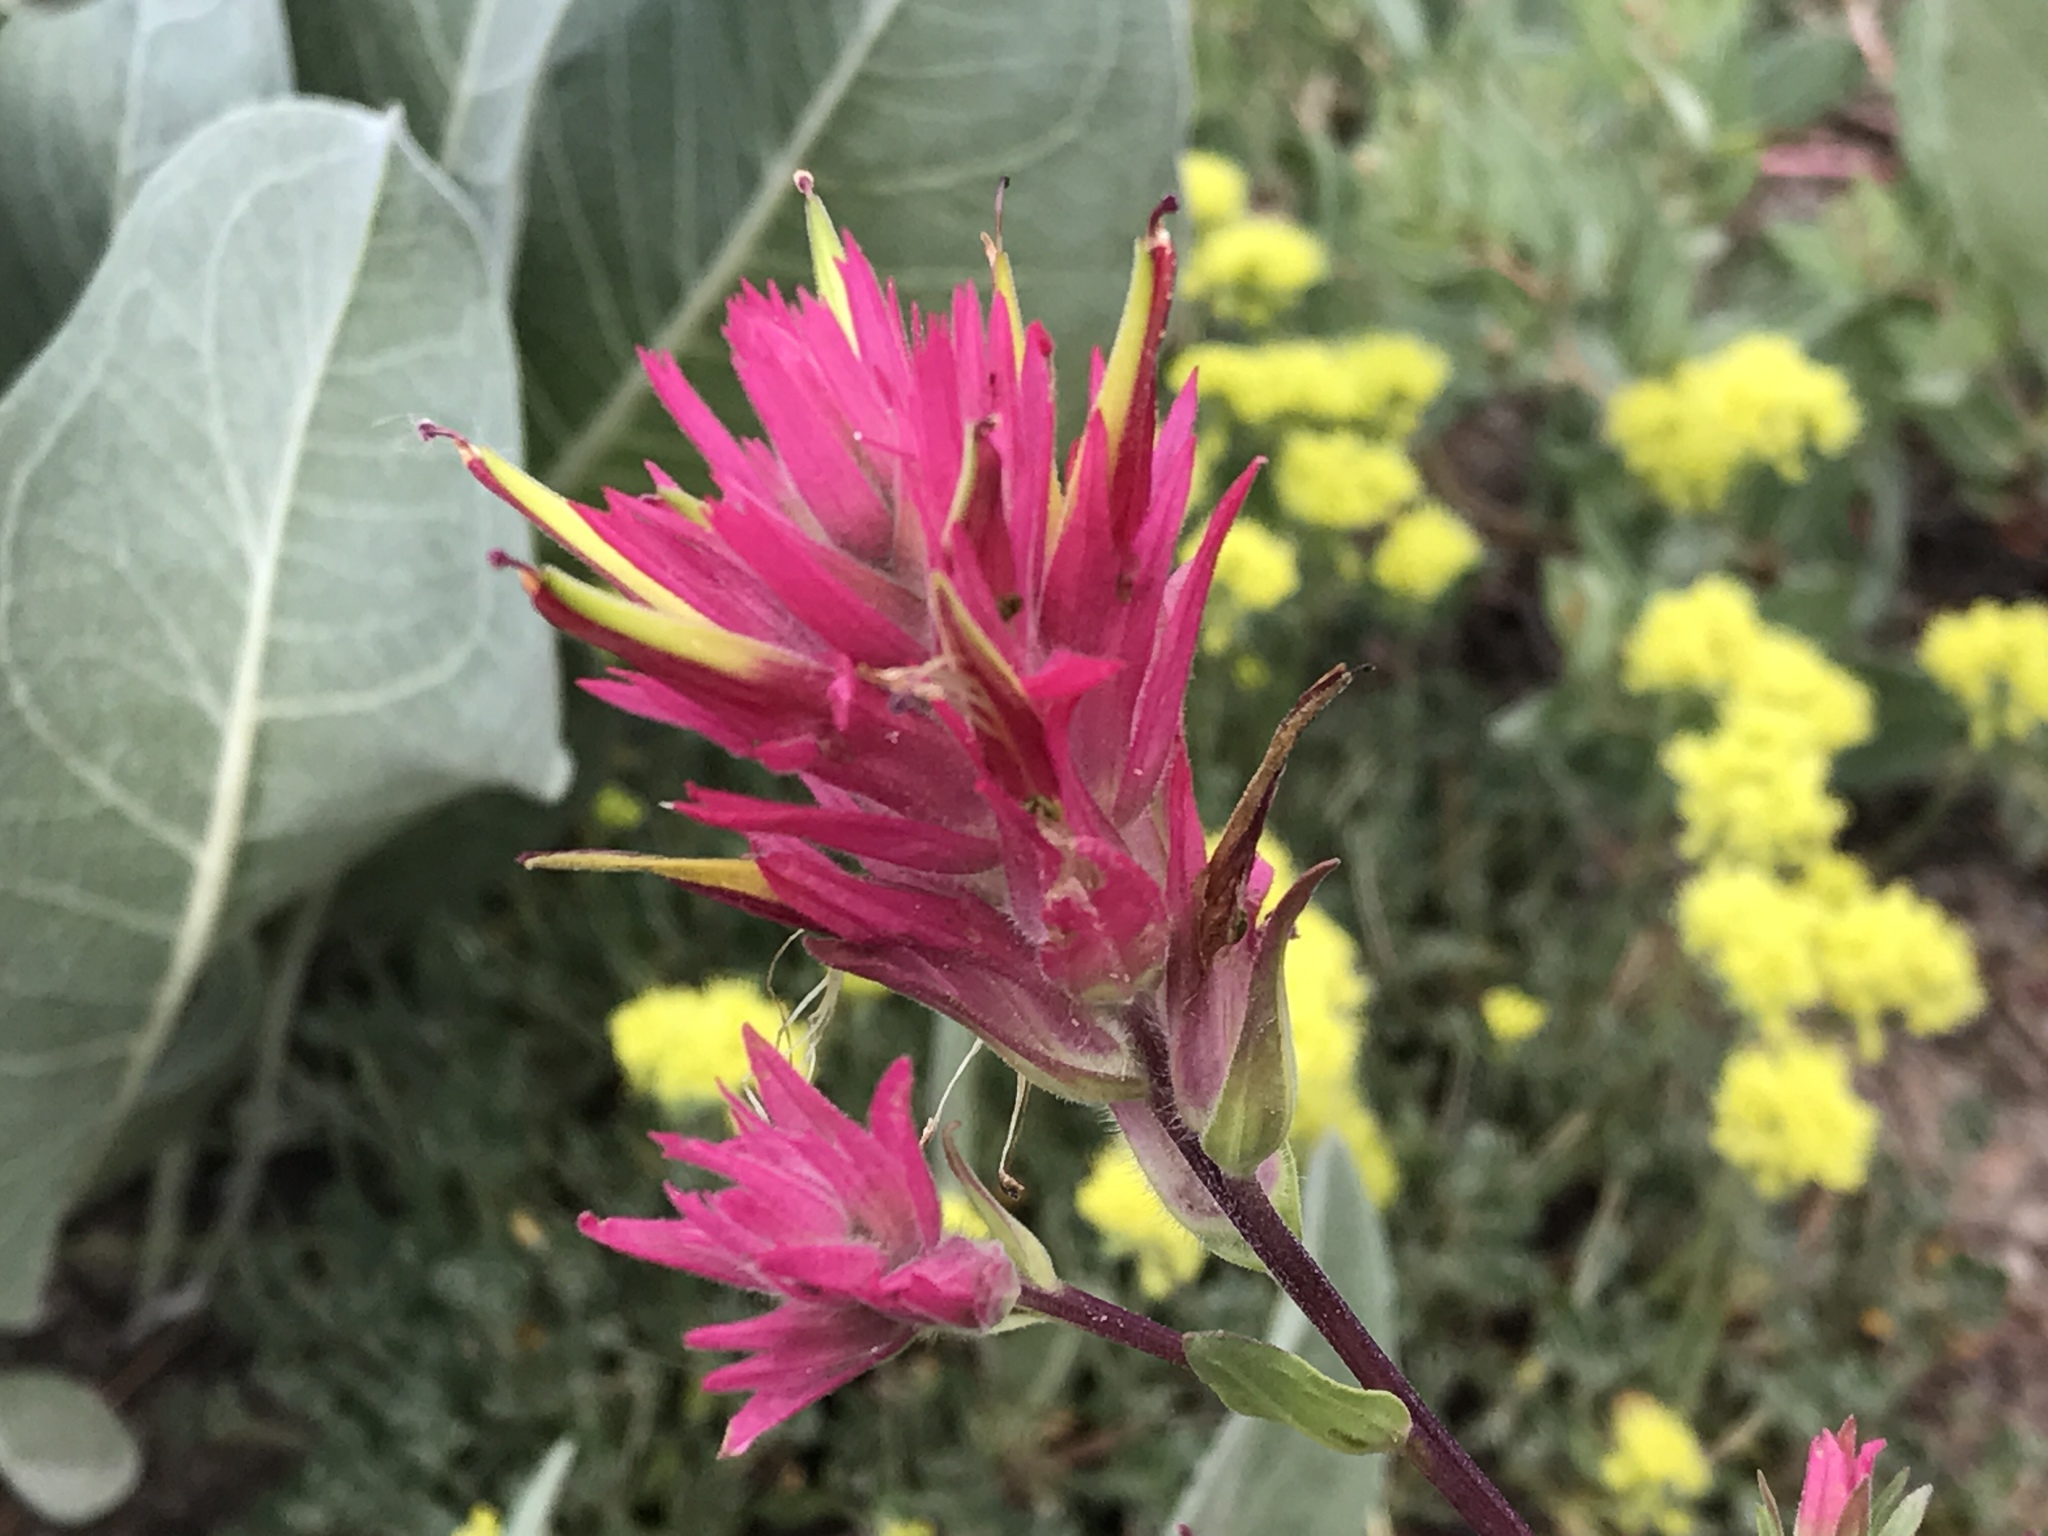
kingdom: Plantae
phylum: Tracheophyta
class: Magnoliopsida
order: Lamiales
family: Orobanchaceae
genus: Castilleja
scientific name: Castilleja miniata
